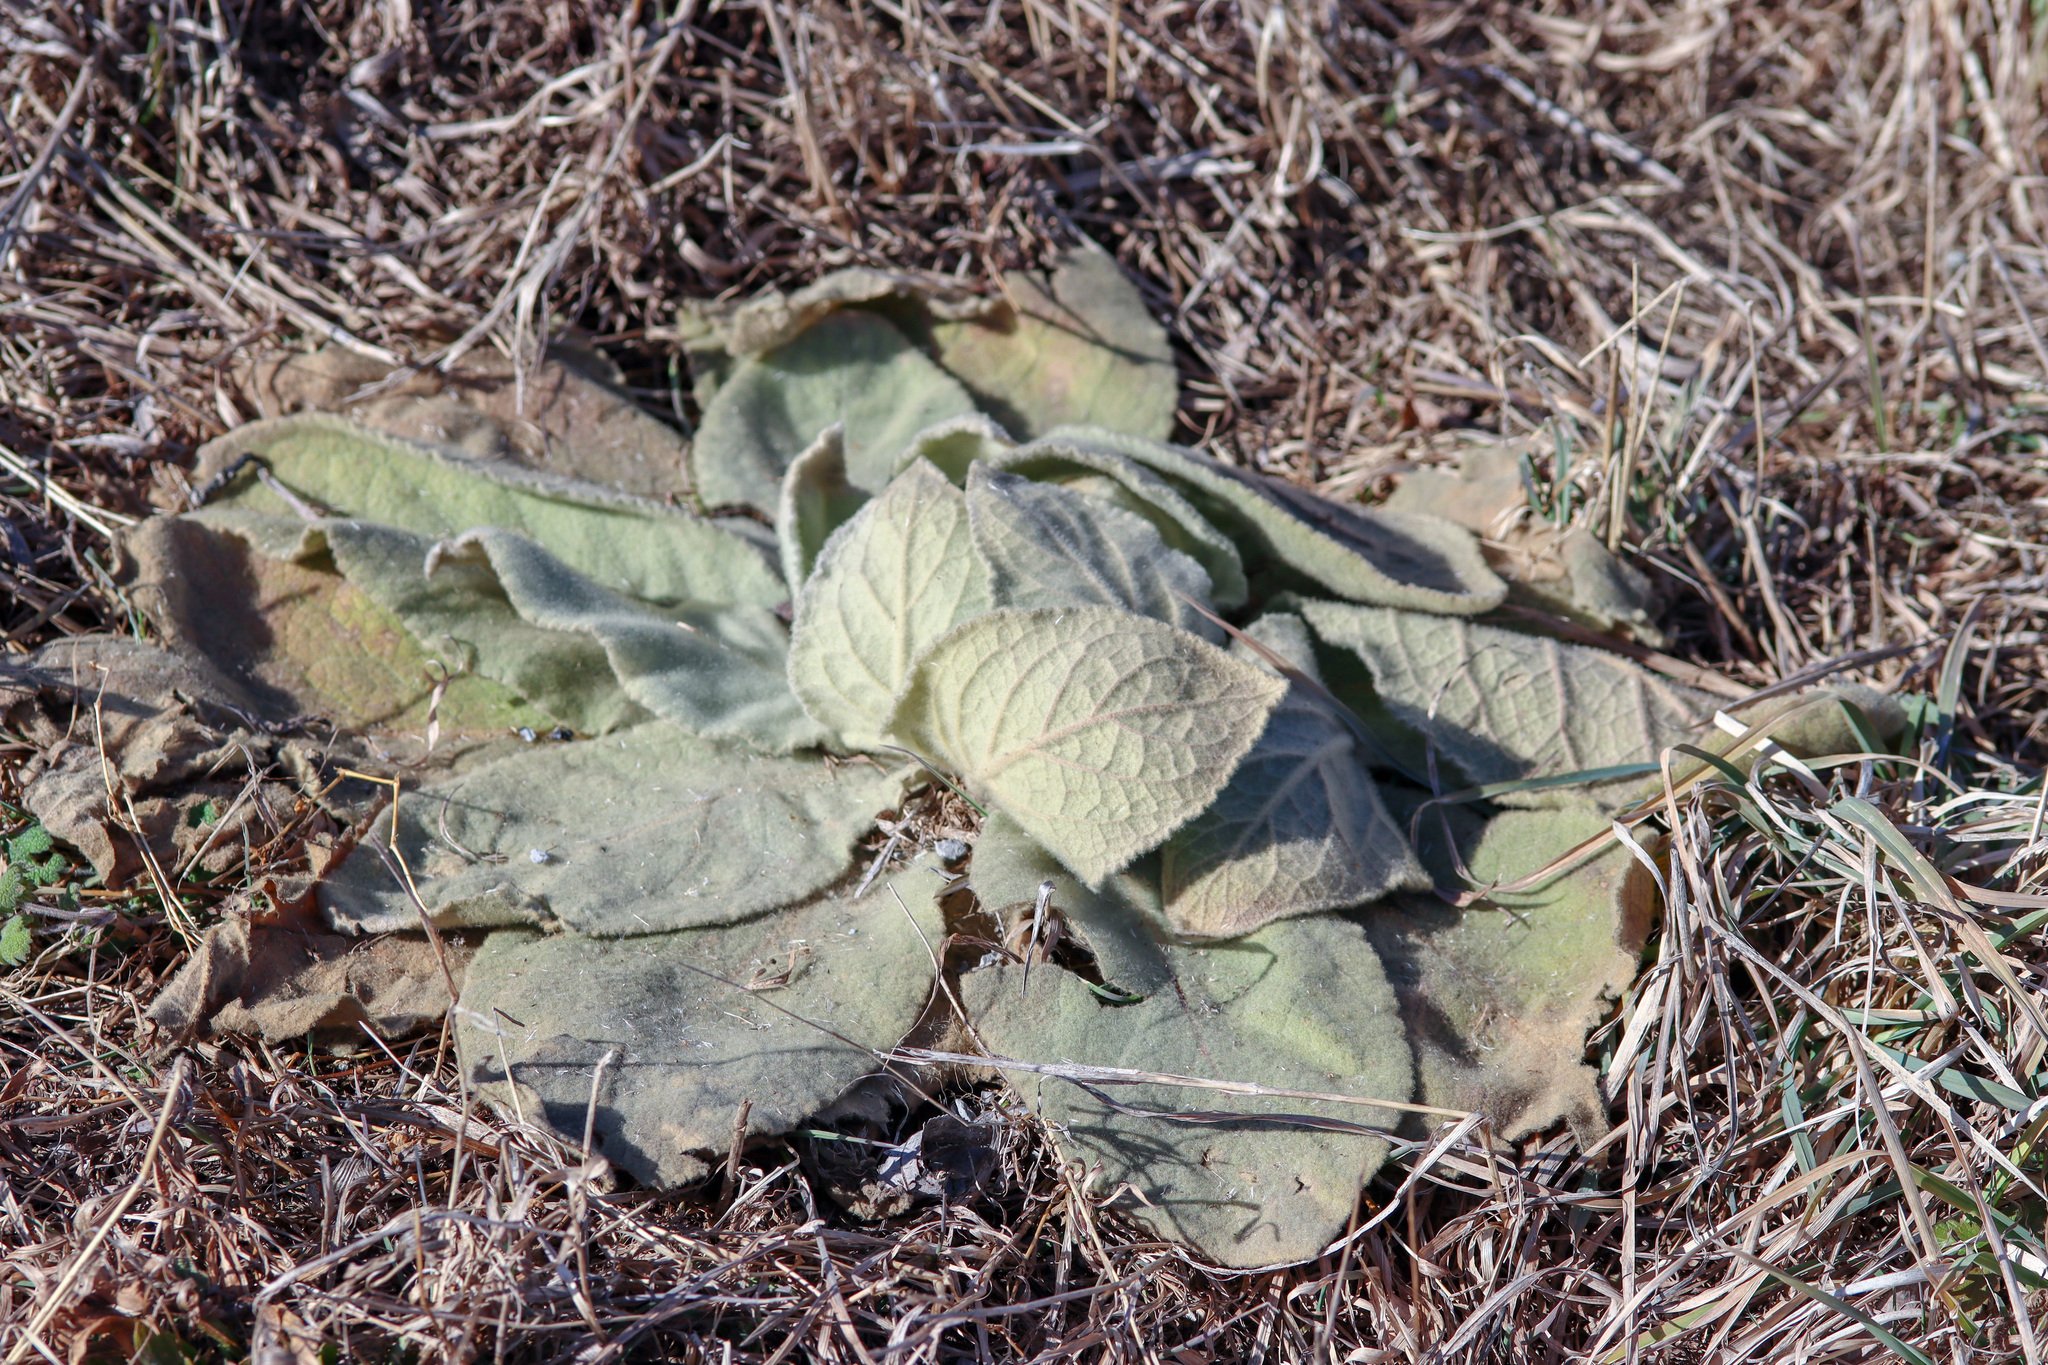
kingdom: Plantae
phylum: Tracheophyta
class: Magnoliopsida
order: Lamiales
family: Scrophulariaceae
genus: Verbascum
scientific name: Verbascum thapsus
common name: Common mullein
